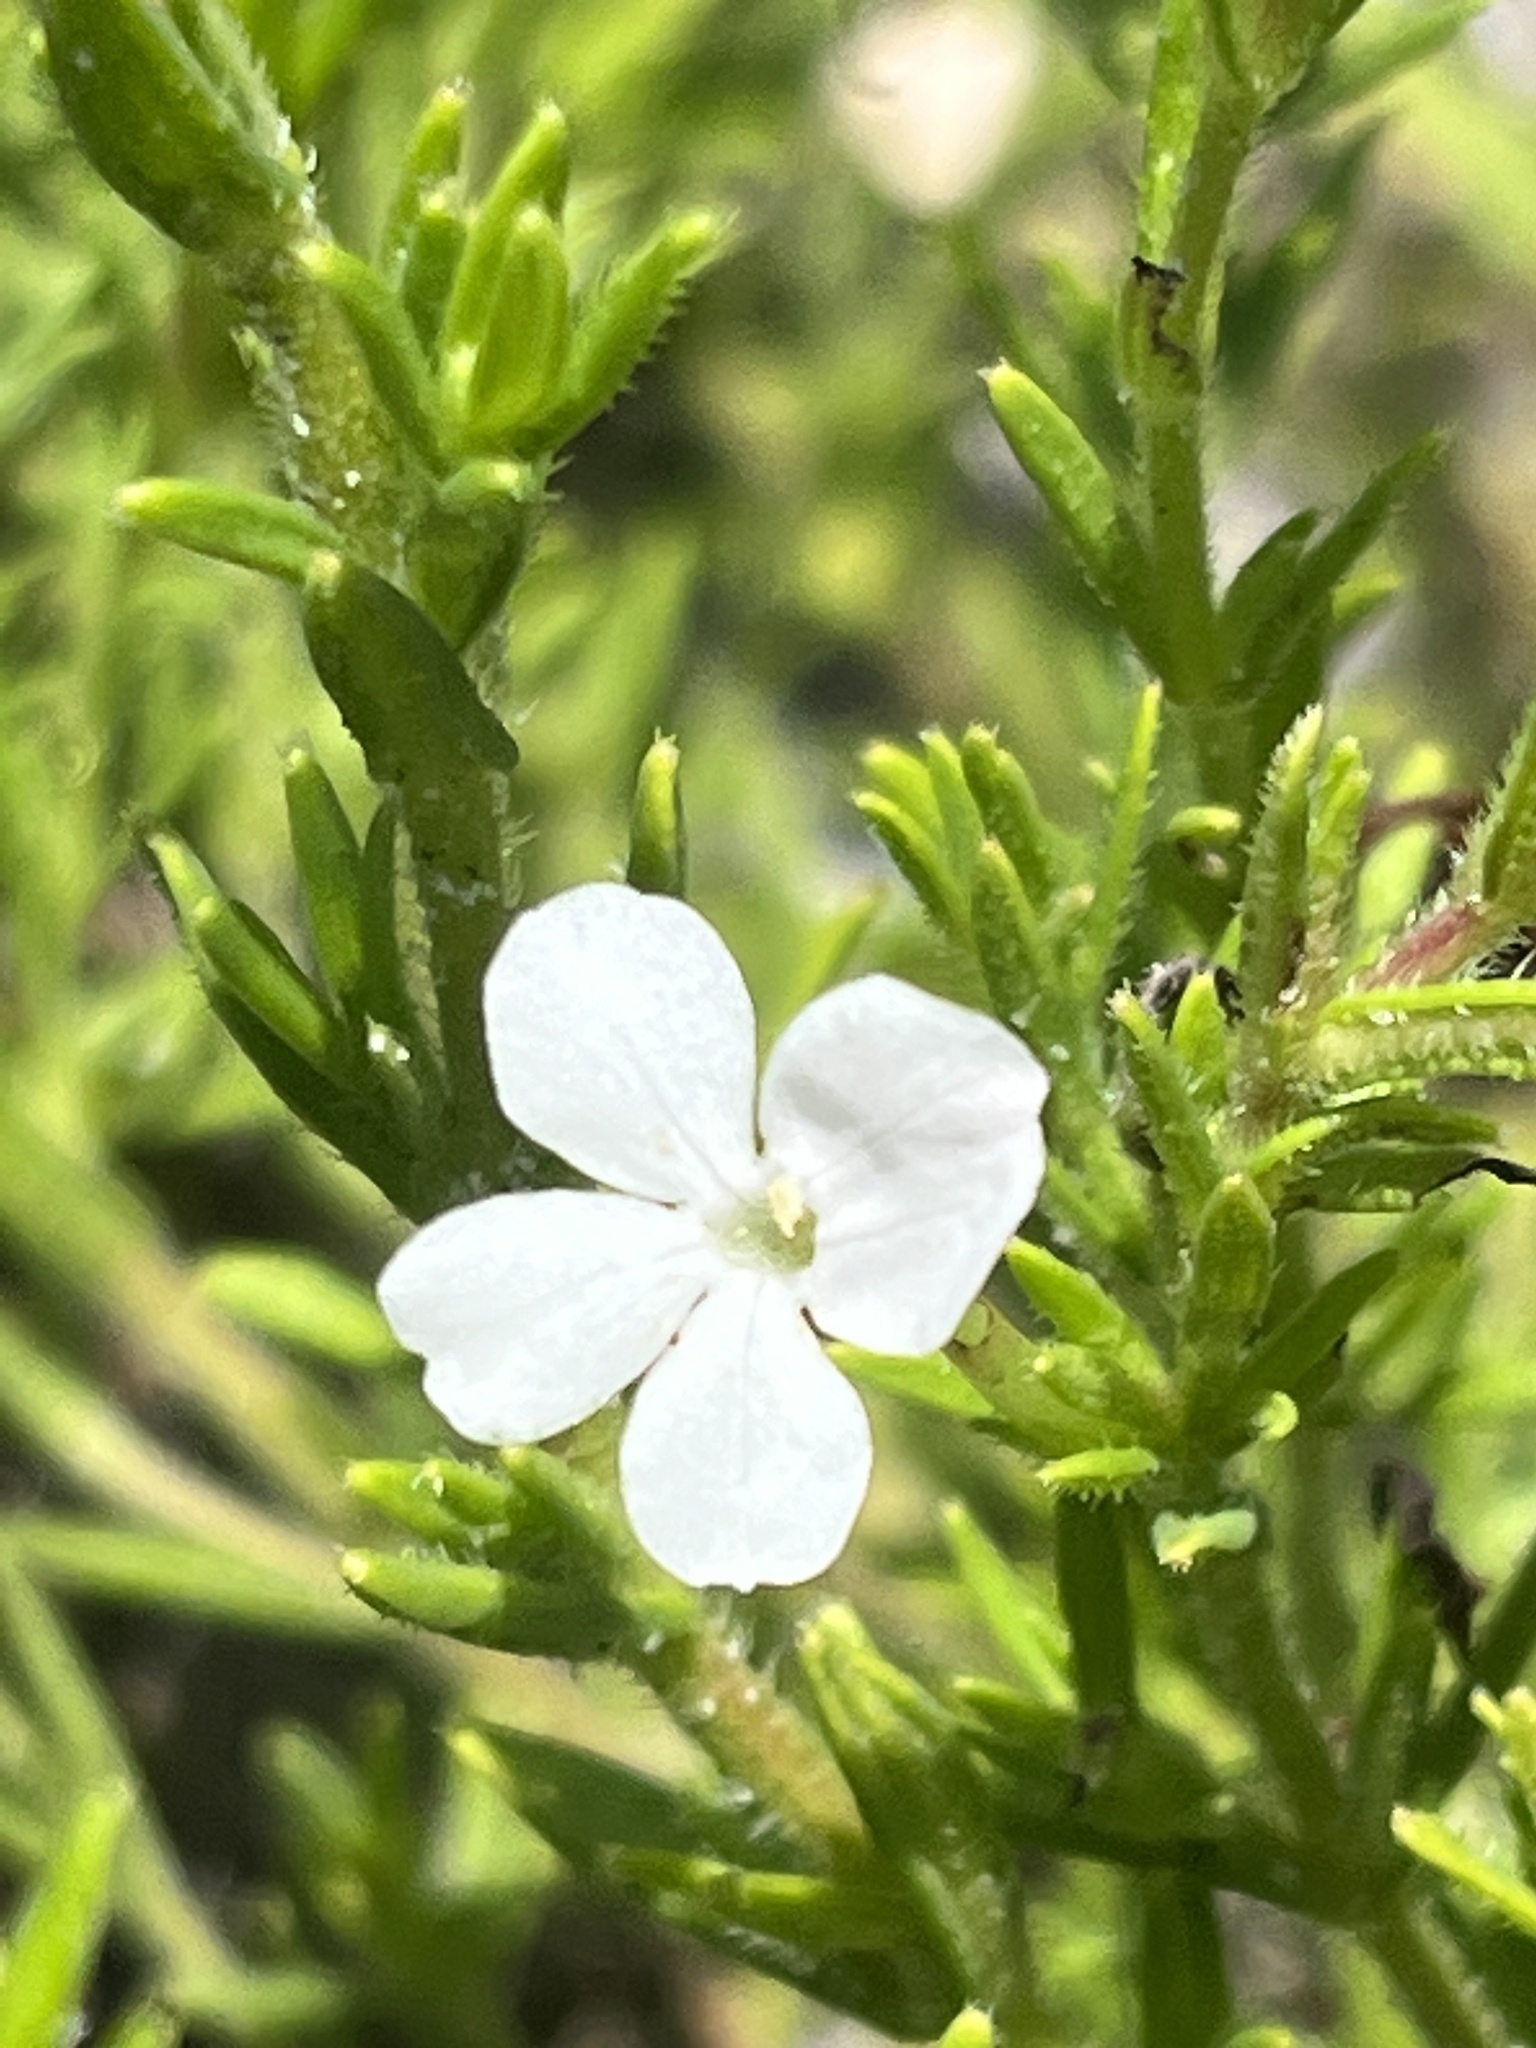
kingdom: Plantae
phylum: Tracheophyta
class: Magnoliopsida
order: Lamiales
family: Plantaginaceae
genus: Gratiola
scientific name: Gratiola hispida
